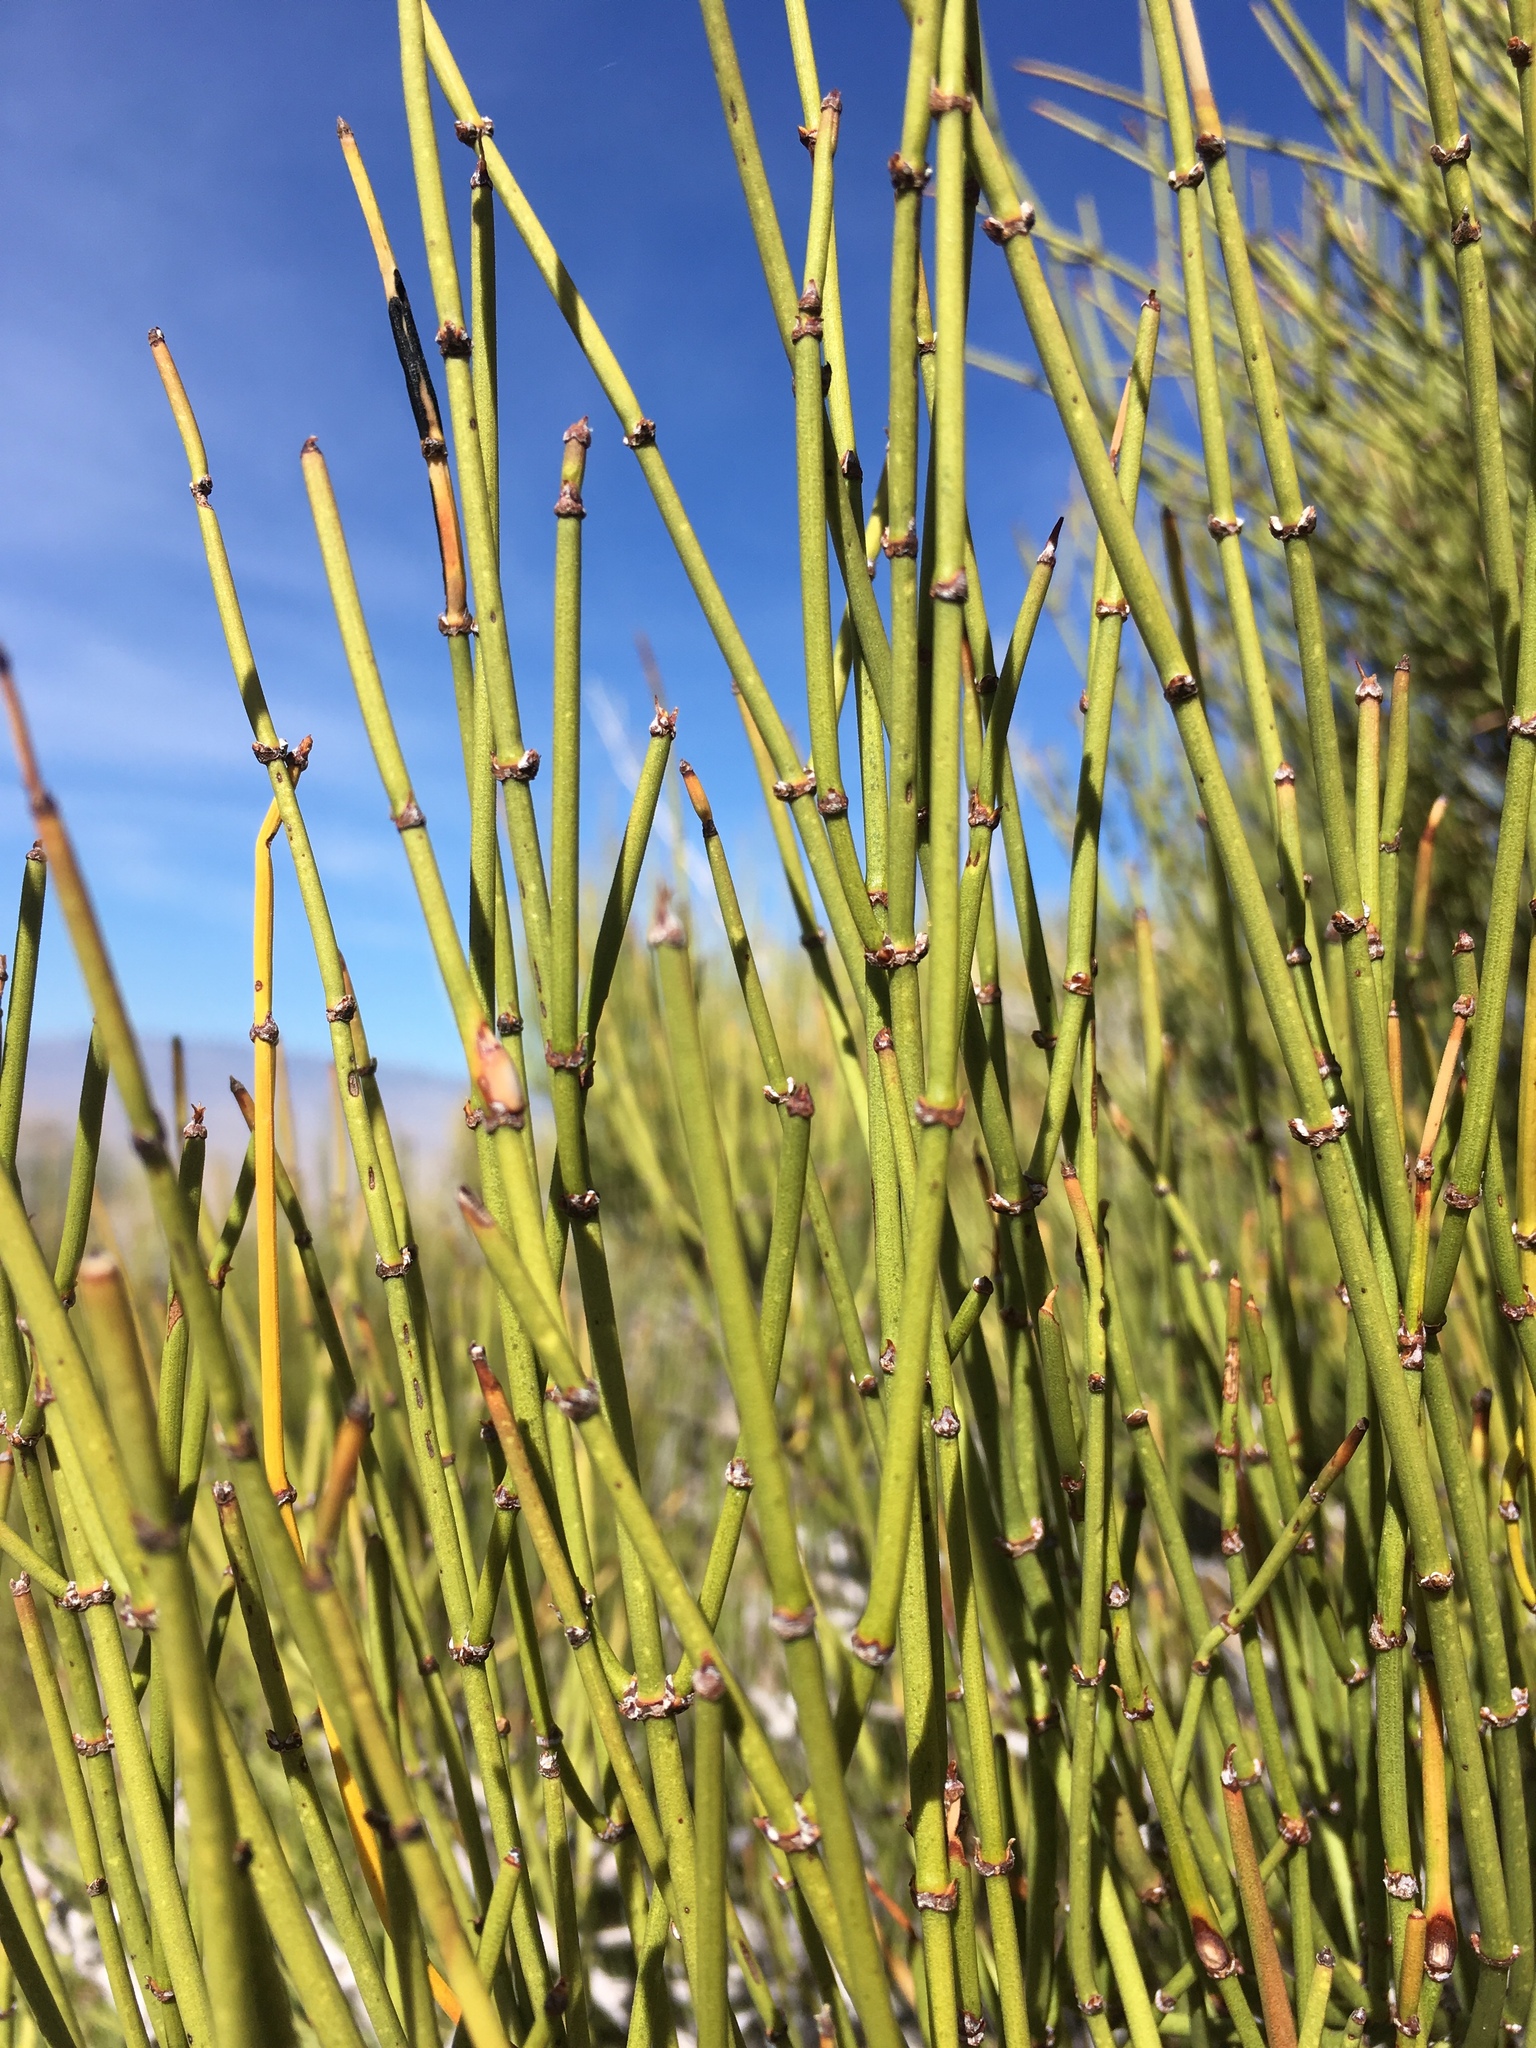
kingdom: Plantae
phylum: Tracheophyta
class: Gnetopsida
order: Ephedrales
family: Ephedraceae
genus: Ephedra
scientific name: Ephedra viridis
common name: Green ephedra
